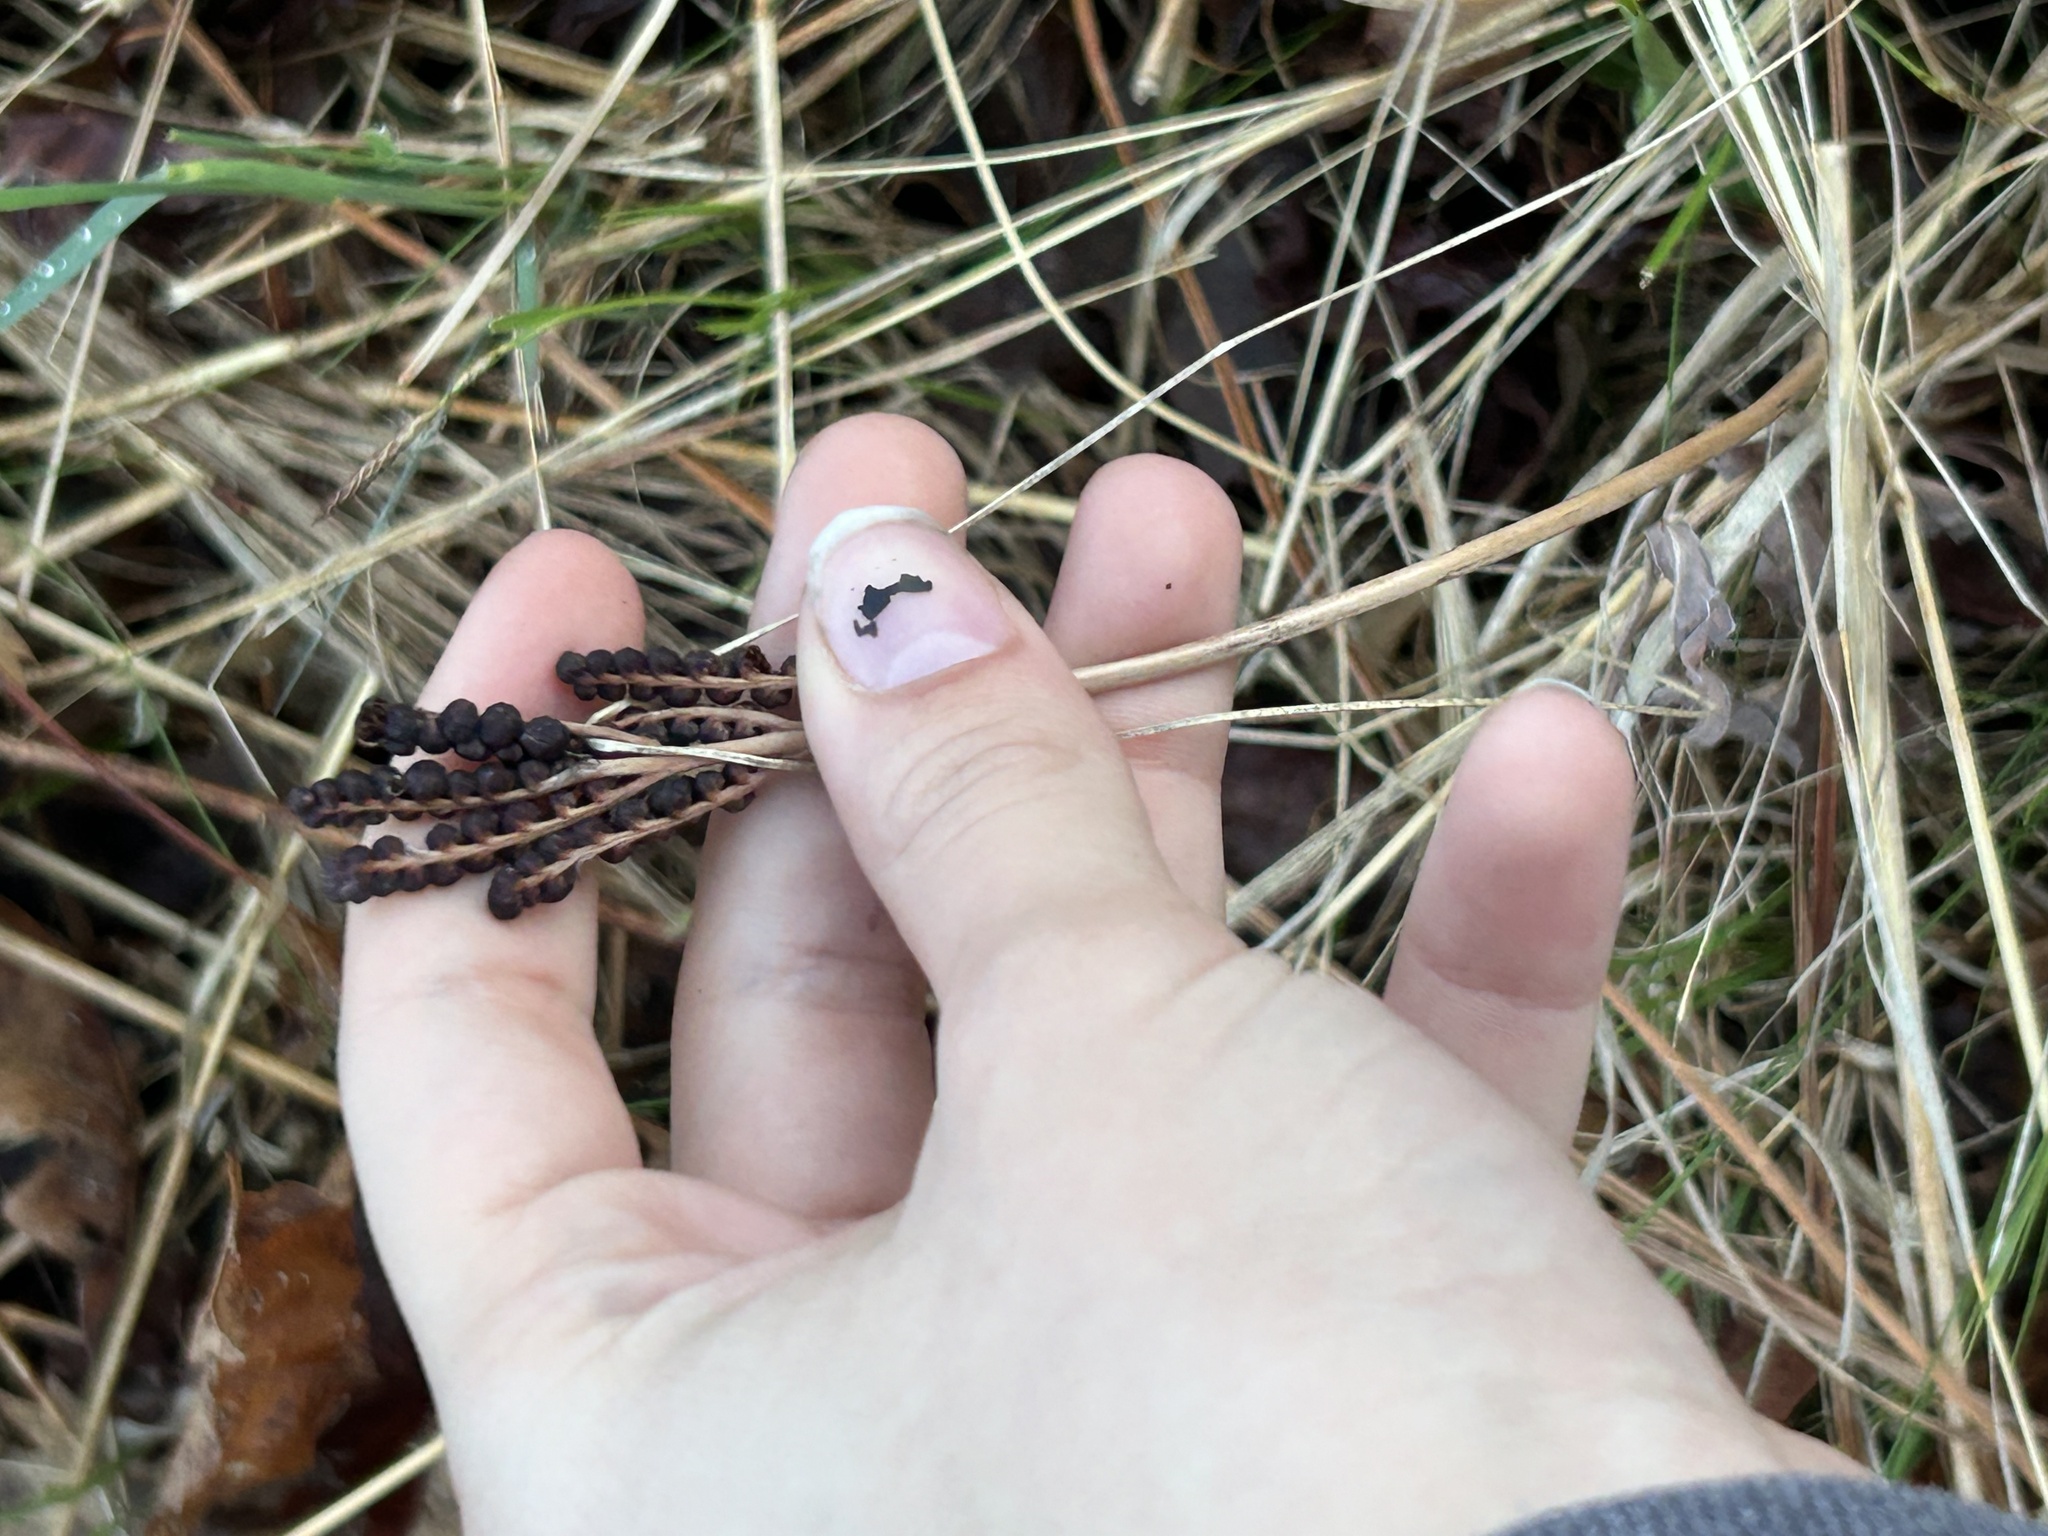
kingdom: Plantae
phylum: Tracheophyta
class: Polypodiopsida
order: Polypodiales
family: Onocleaceae
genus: Onoclea
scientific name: Onoclea sensibilis
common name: Sensitive fern
